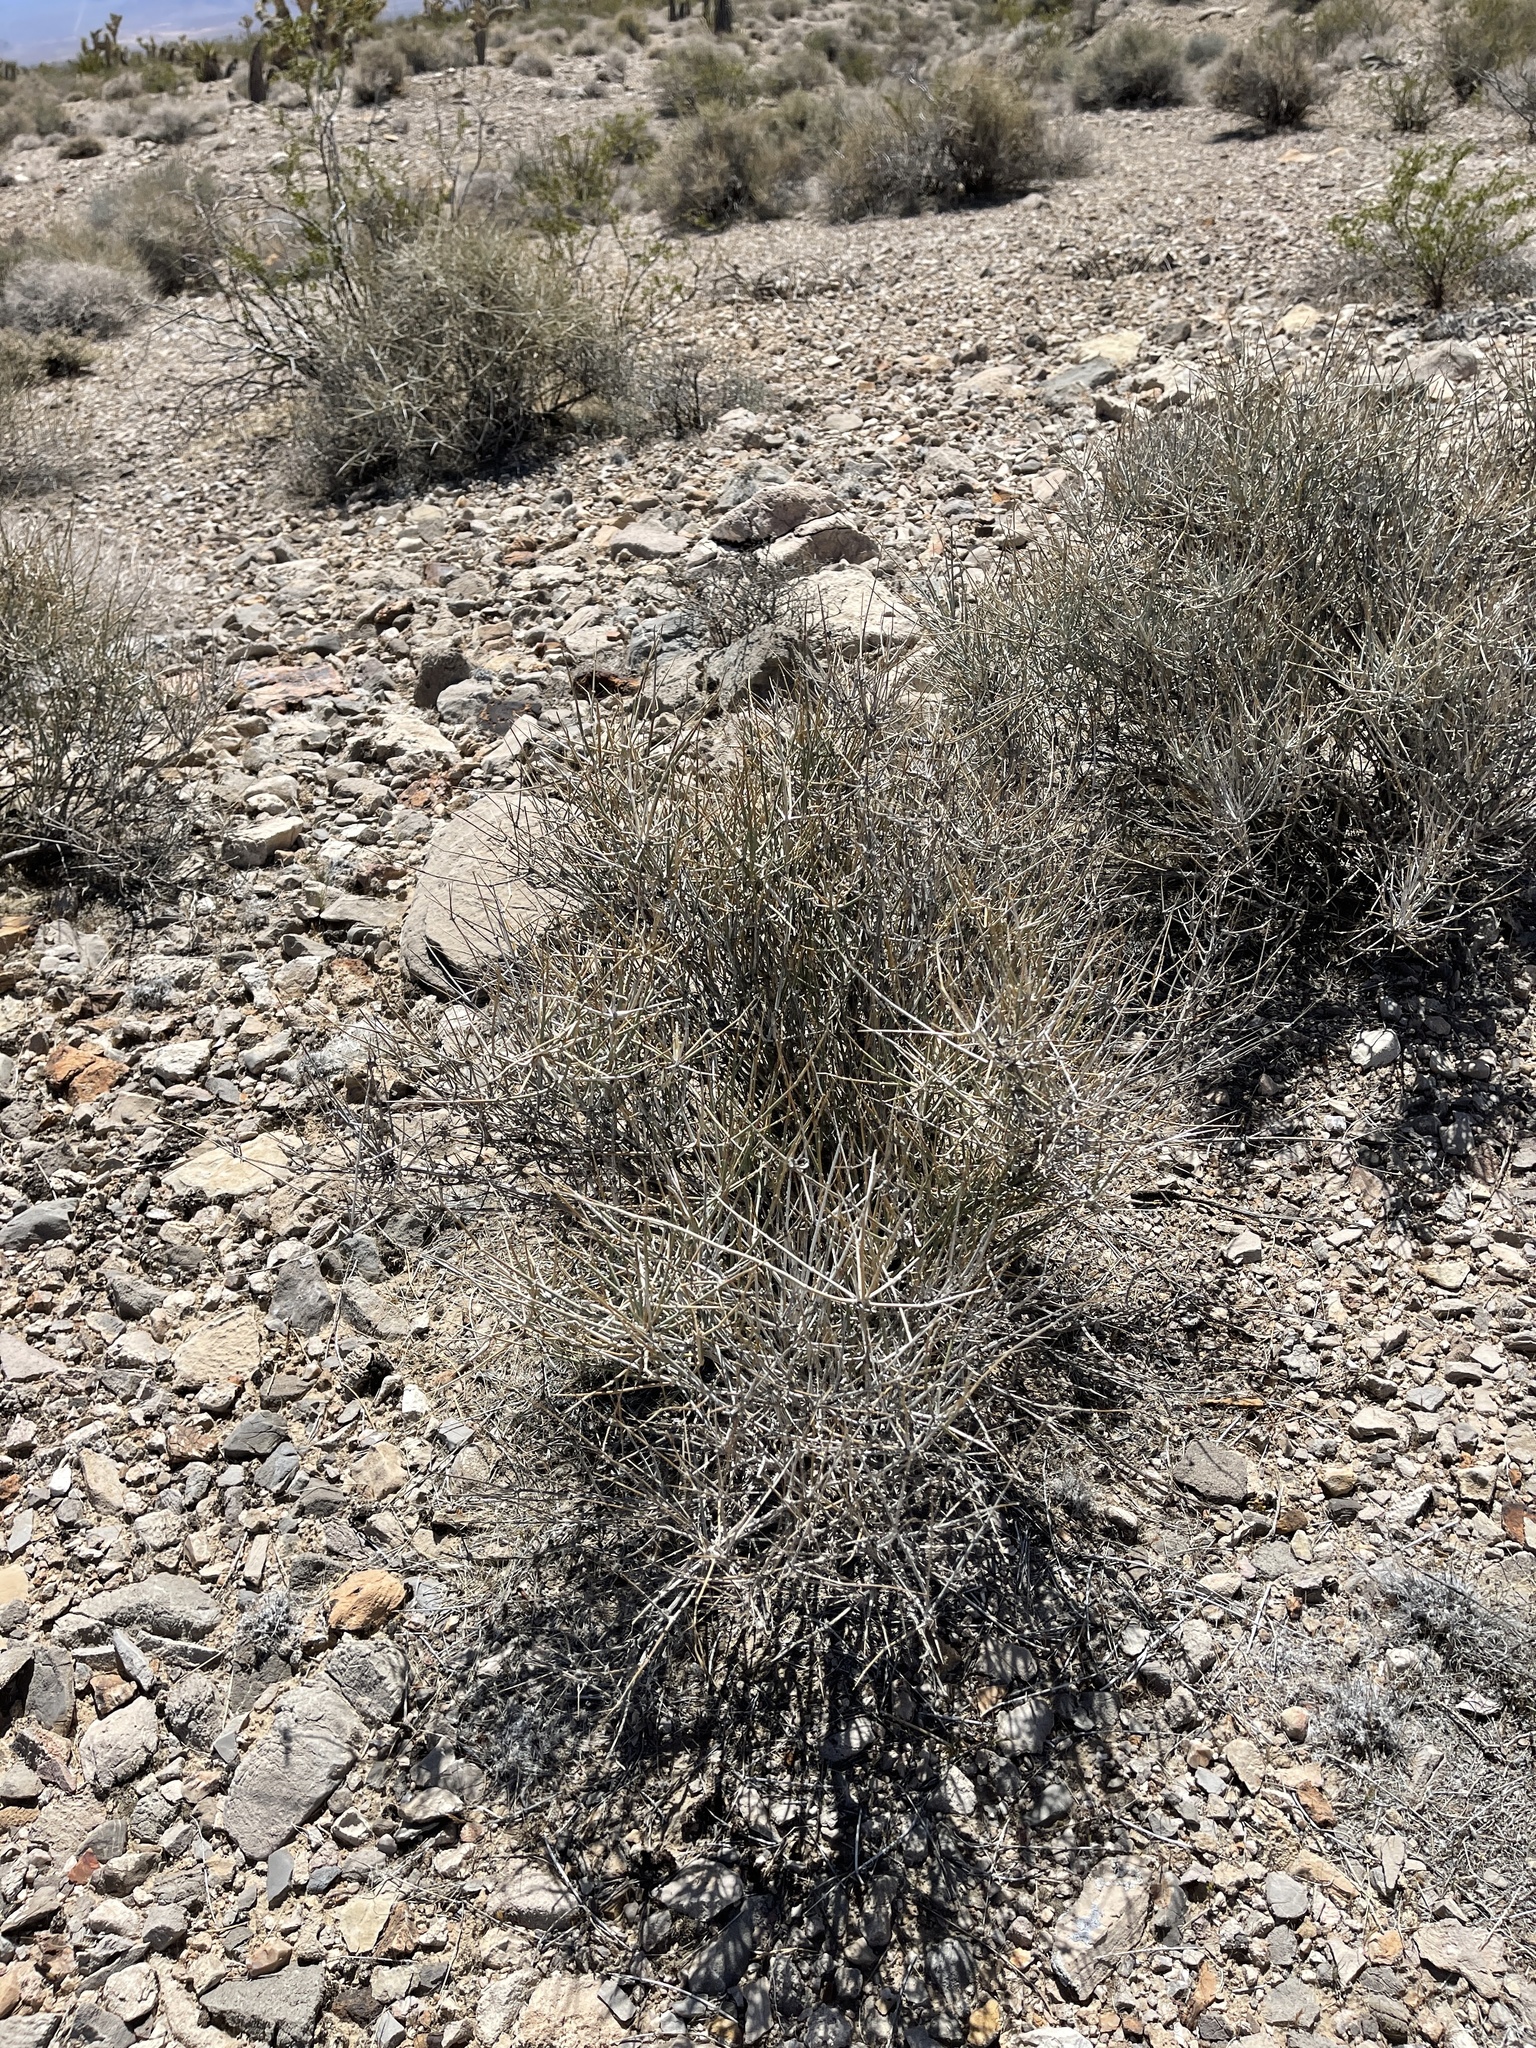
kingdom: Plantae
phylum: Tracheophyta
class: Gnetopsida
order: Ephedrales
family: Ephedraceae
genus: Ephedra
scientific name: Ephedra nevadensis
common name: Gray ephedra
